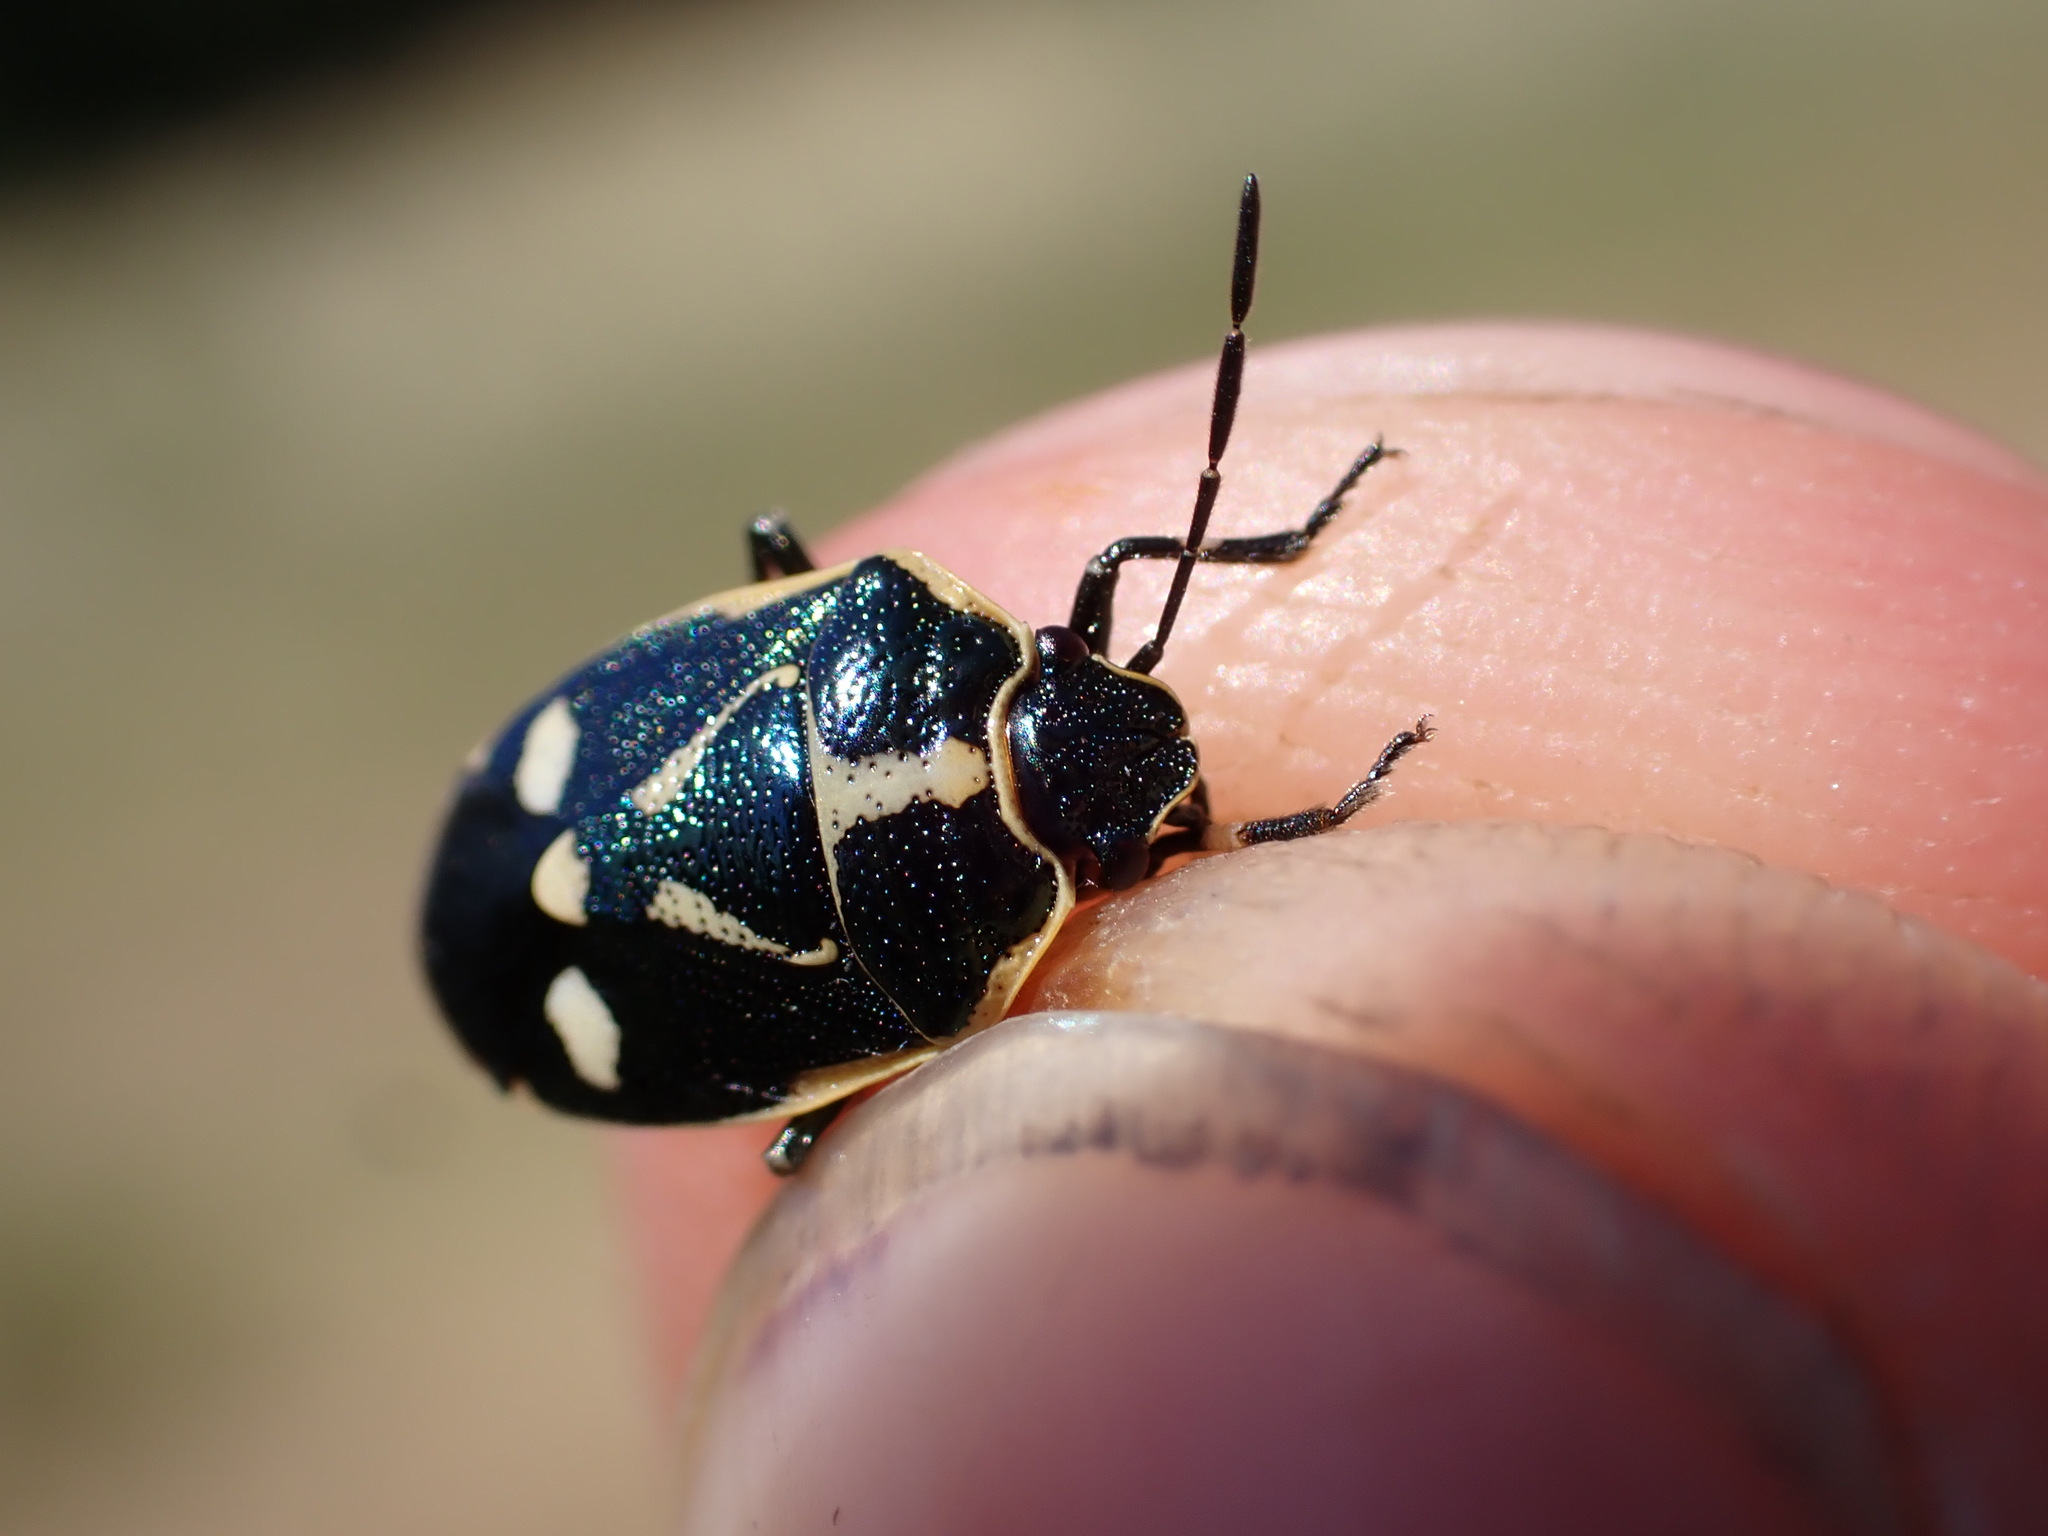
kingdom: Animalia
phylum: Arthropoda
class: Insecta
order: Hemiptera
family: Pentatomidae
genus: Eurydema
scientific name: Eurydema oleracea
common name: Cabbage bug
